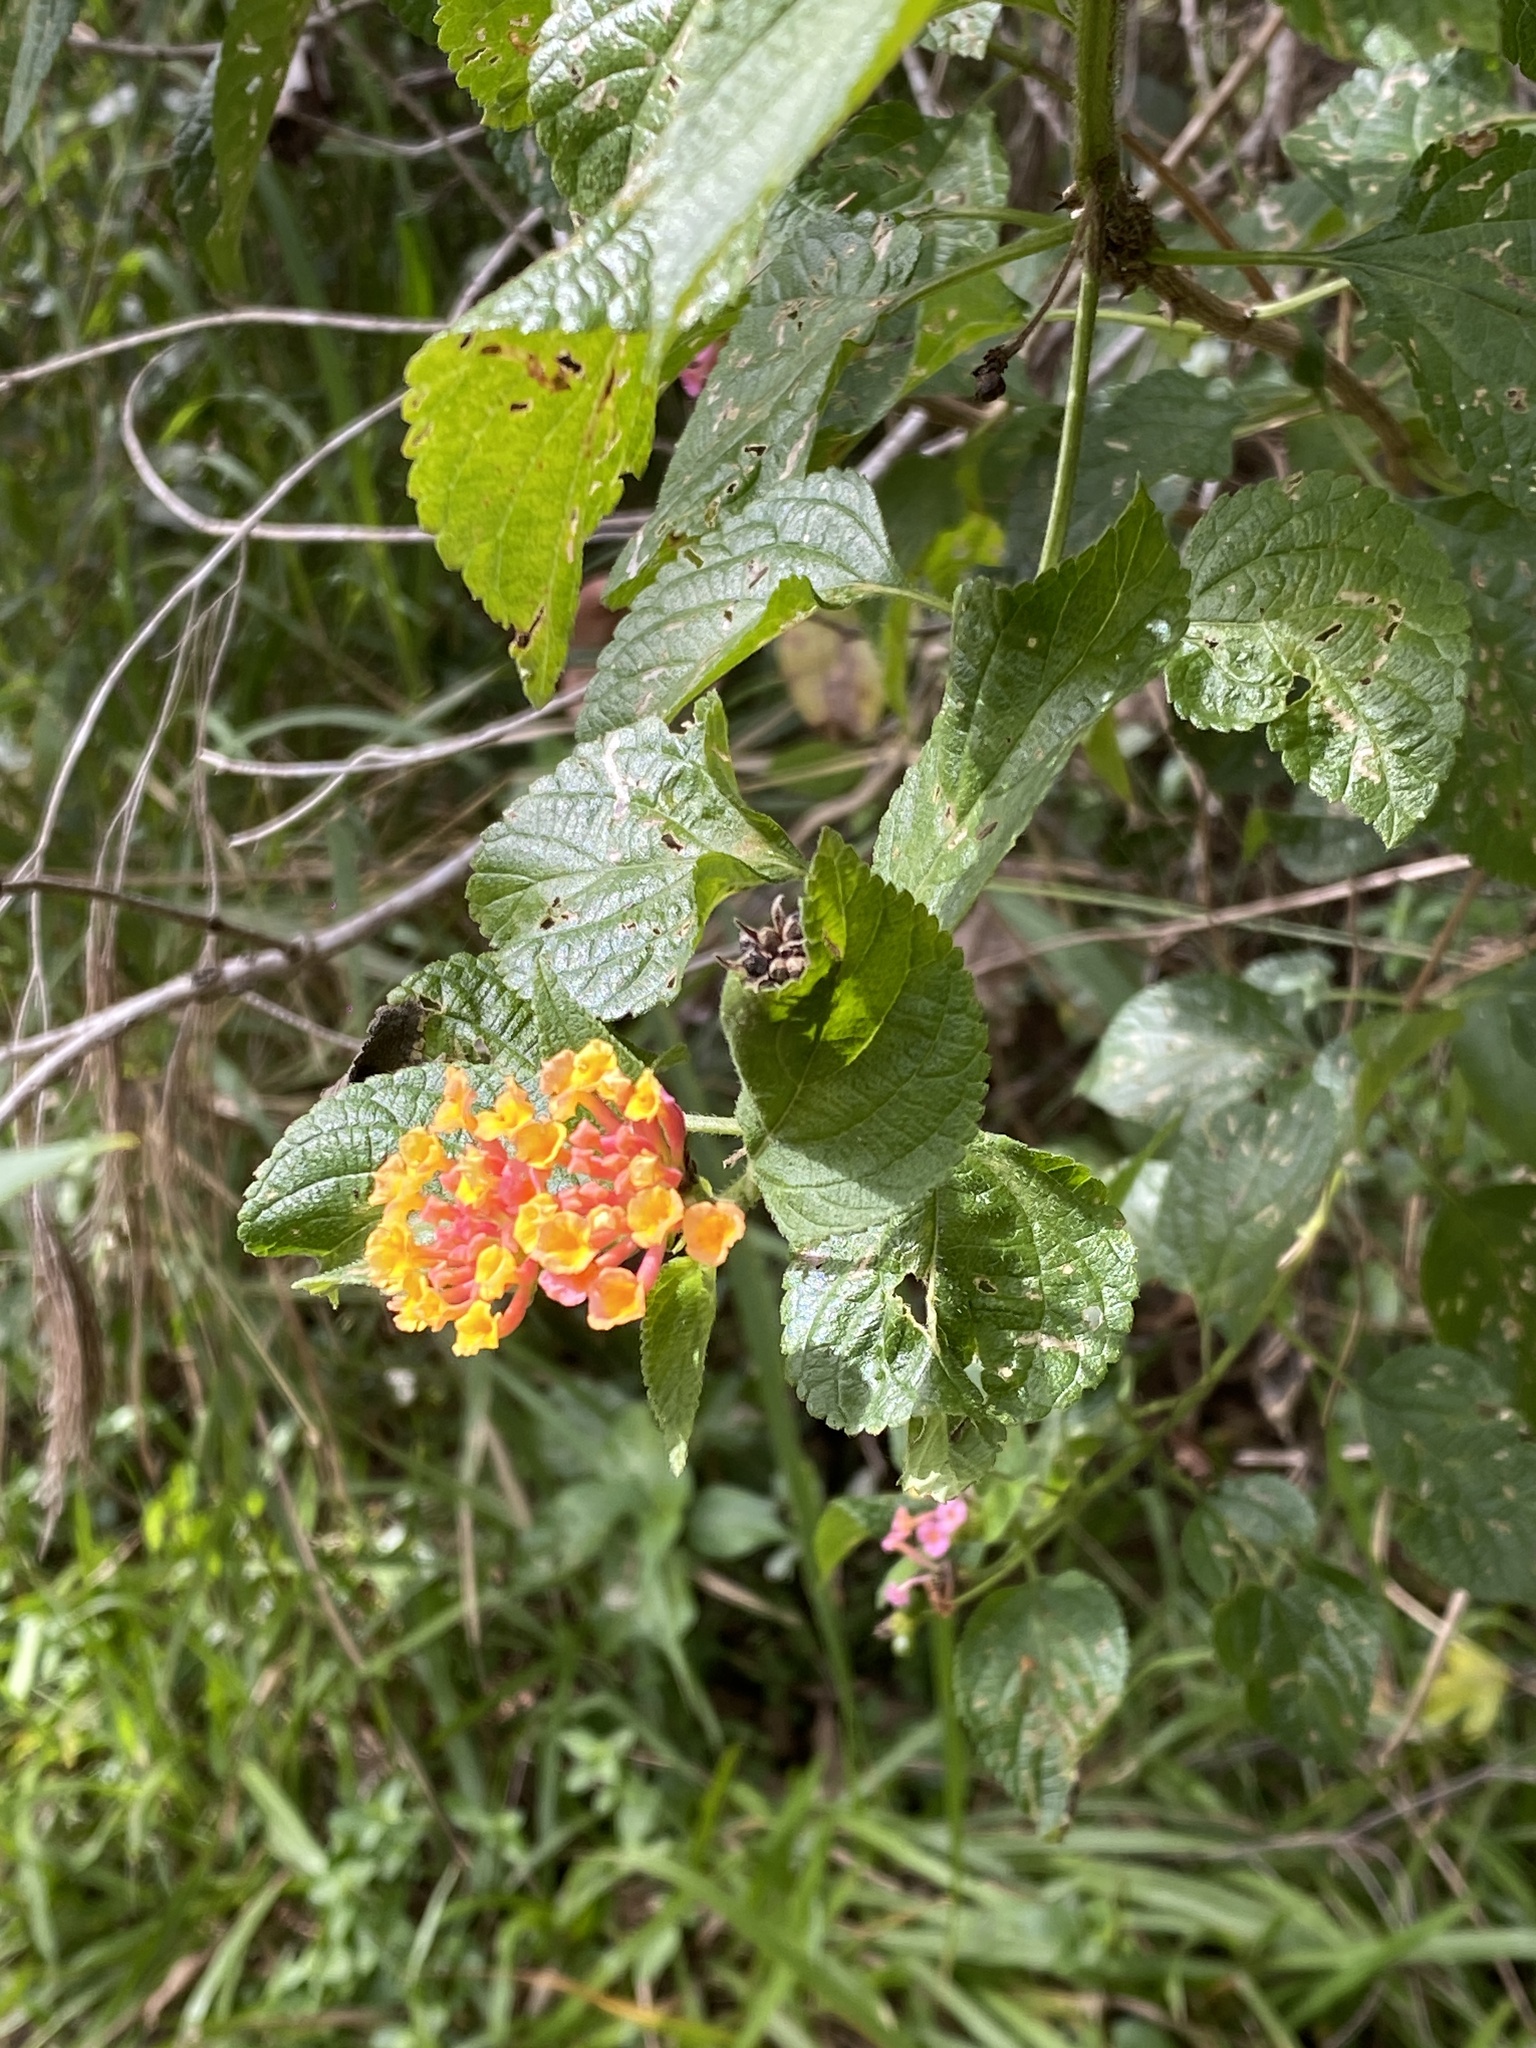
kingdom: Plantae
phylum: Tracheophyta
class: Magnoliopsida
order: Lamiales
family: Verbenaceae
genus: Lantana
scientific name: Lantana camara
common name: Lantana
